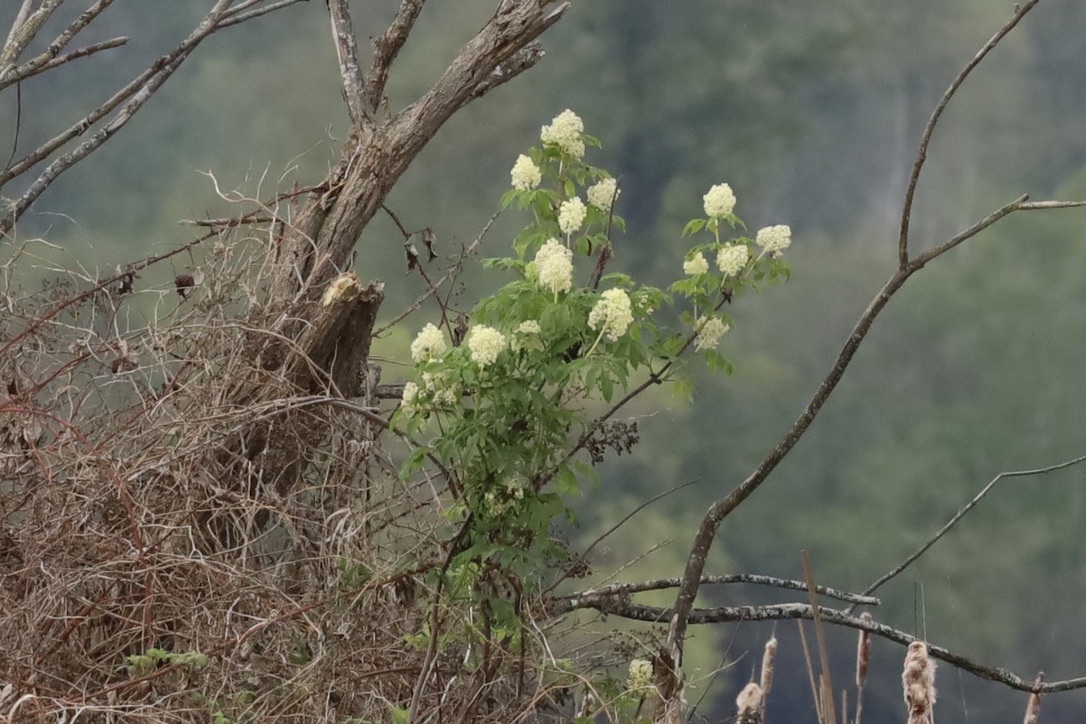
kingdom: Plantae
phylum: Tracheophyta
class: Magnoliopsida
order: Dipsacales
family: Viburnaceae
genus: Sambucus
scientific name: Sambucus racemosa
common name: Red-berried elder
